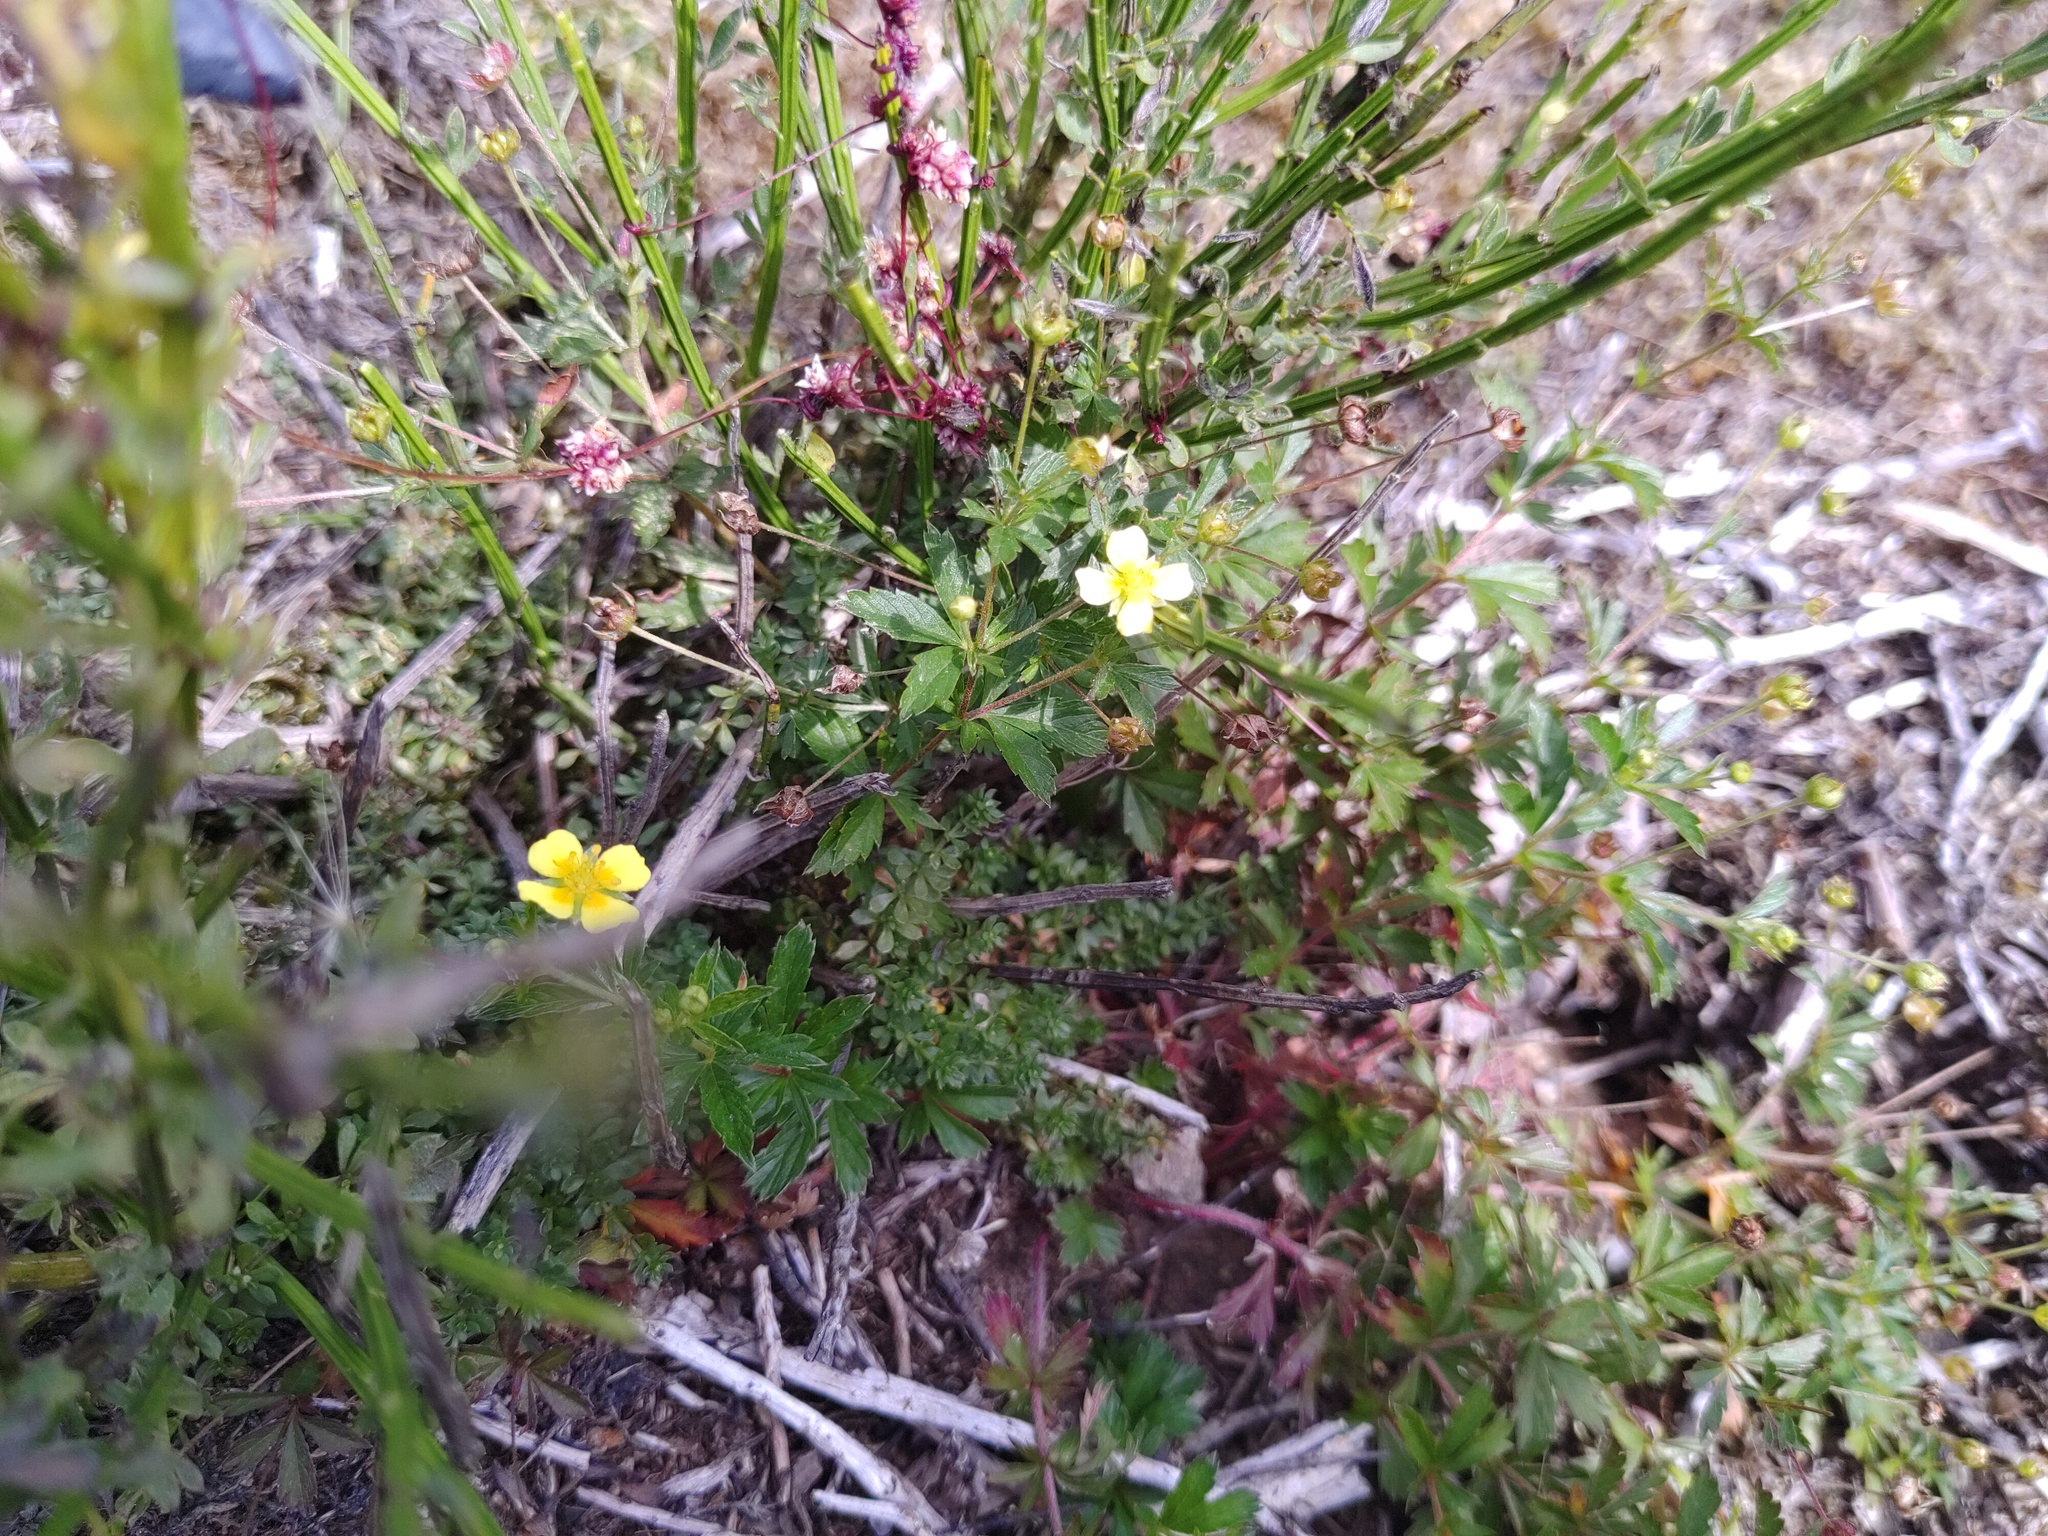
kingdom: Plantae
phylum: Tracheophyta
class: Magnoliopsida
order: Rosales
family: Rosaceae
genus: Potentilla
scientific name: Potentilla erecta
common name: Tormentil
